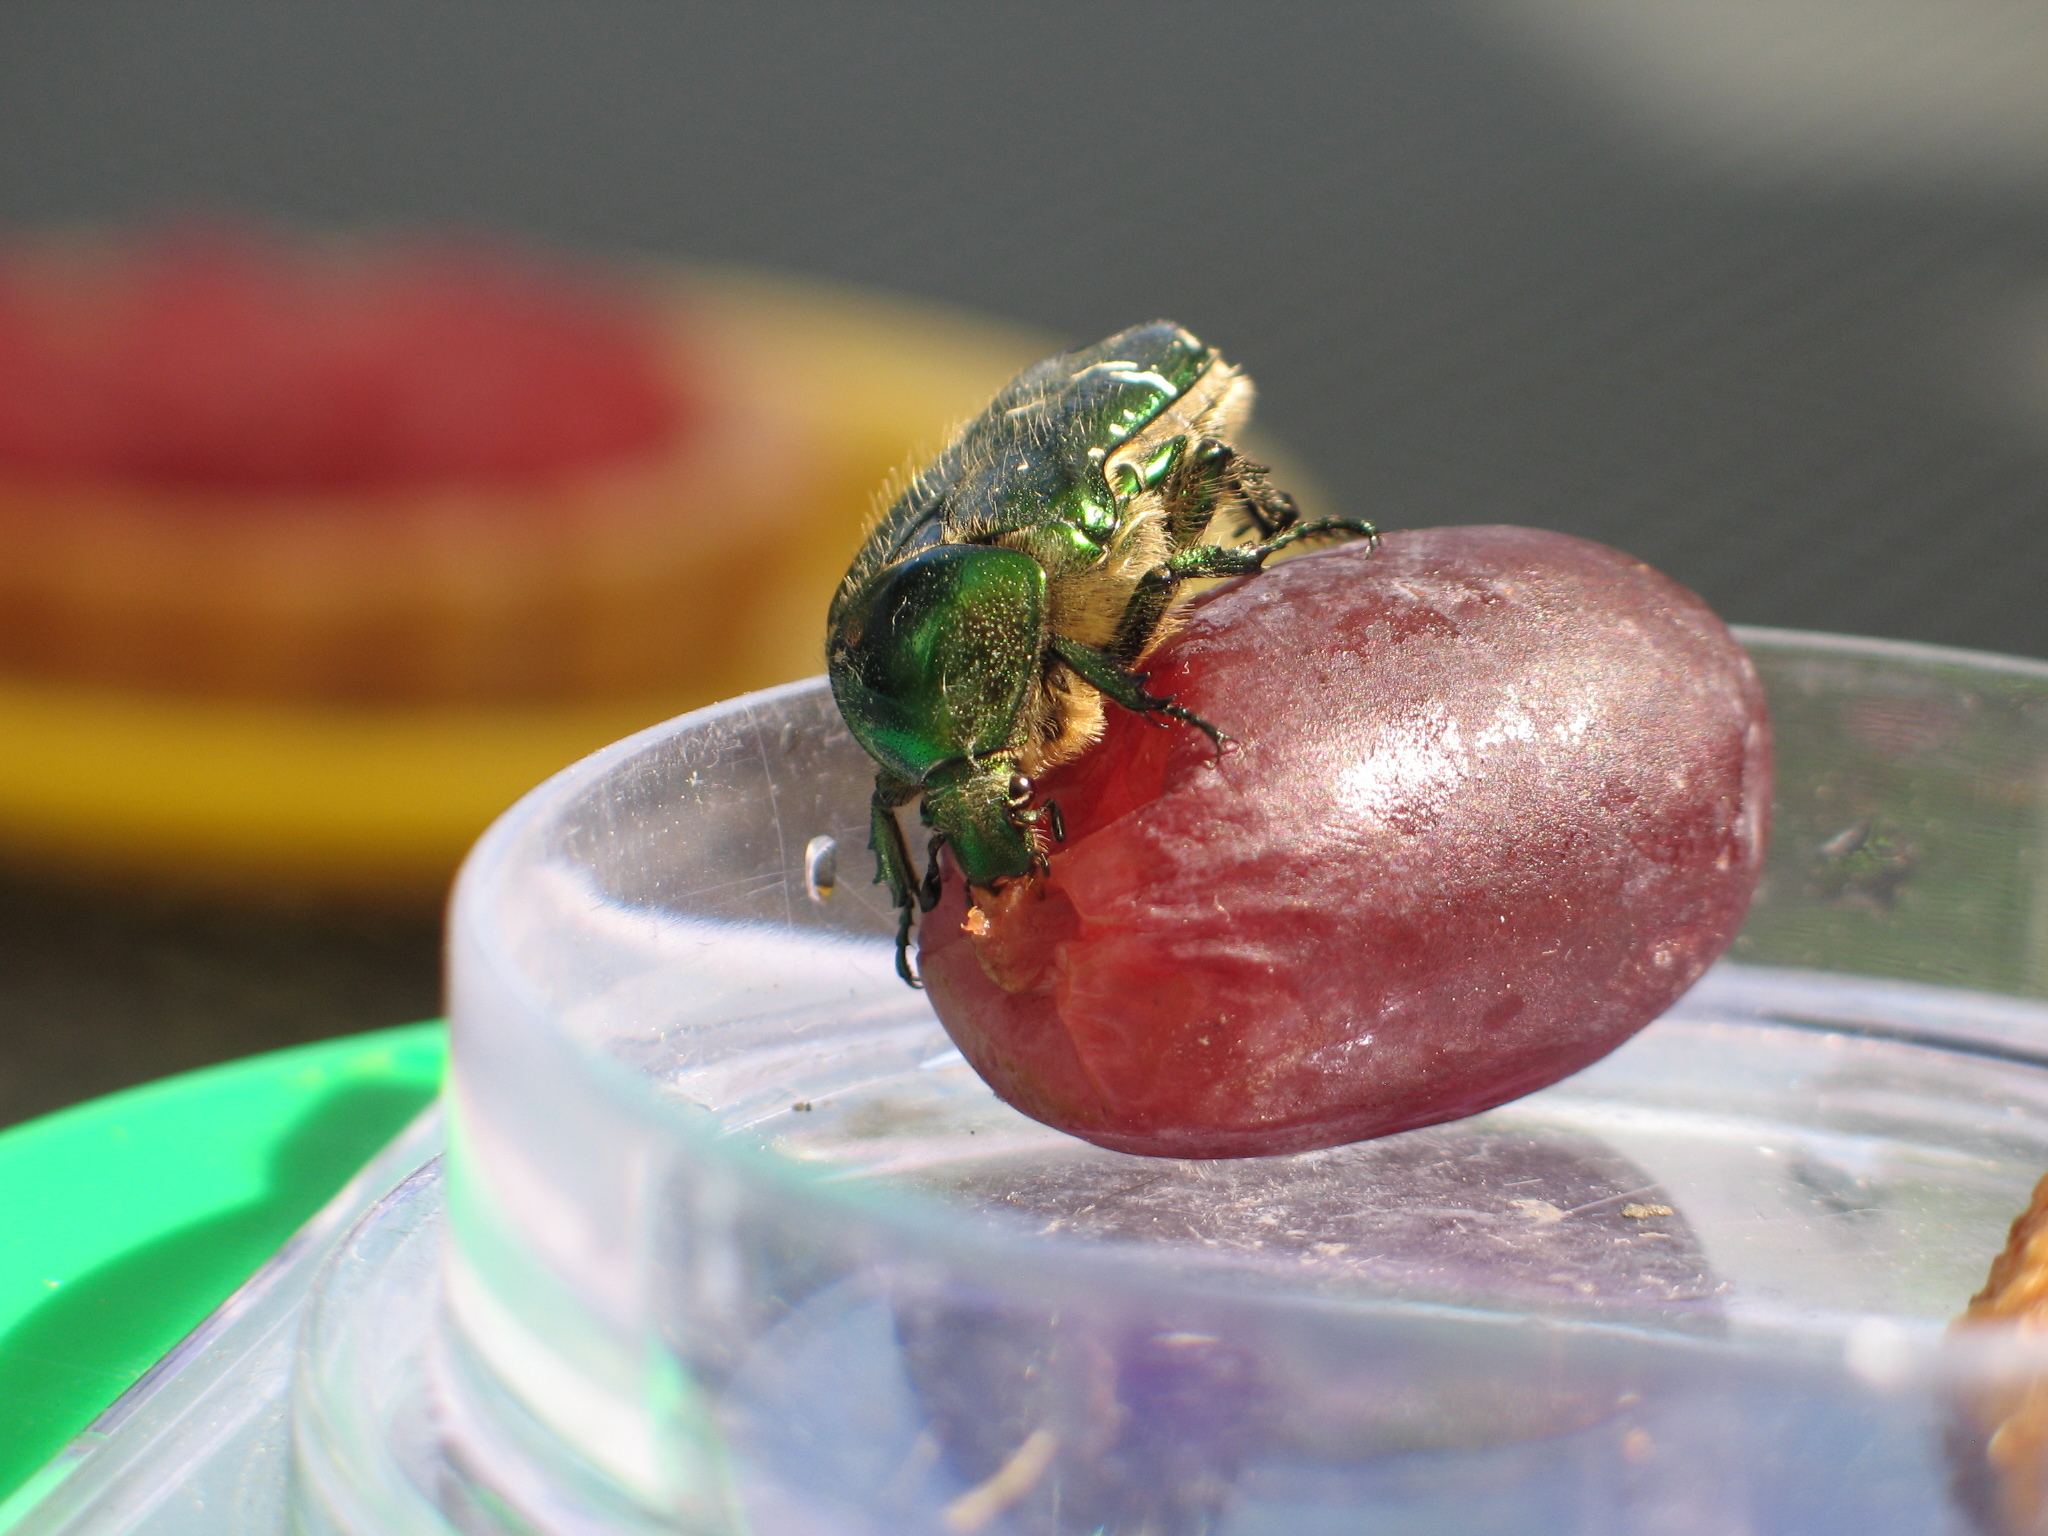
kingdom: Animalia
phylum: Arthropoda
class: Insecta
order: Coleoptera
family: Scarabaeidae
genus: Cetonia
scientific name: Cetonia aurata
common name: Rose chafer
